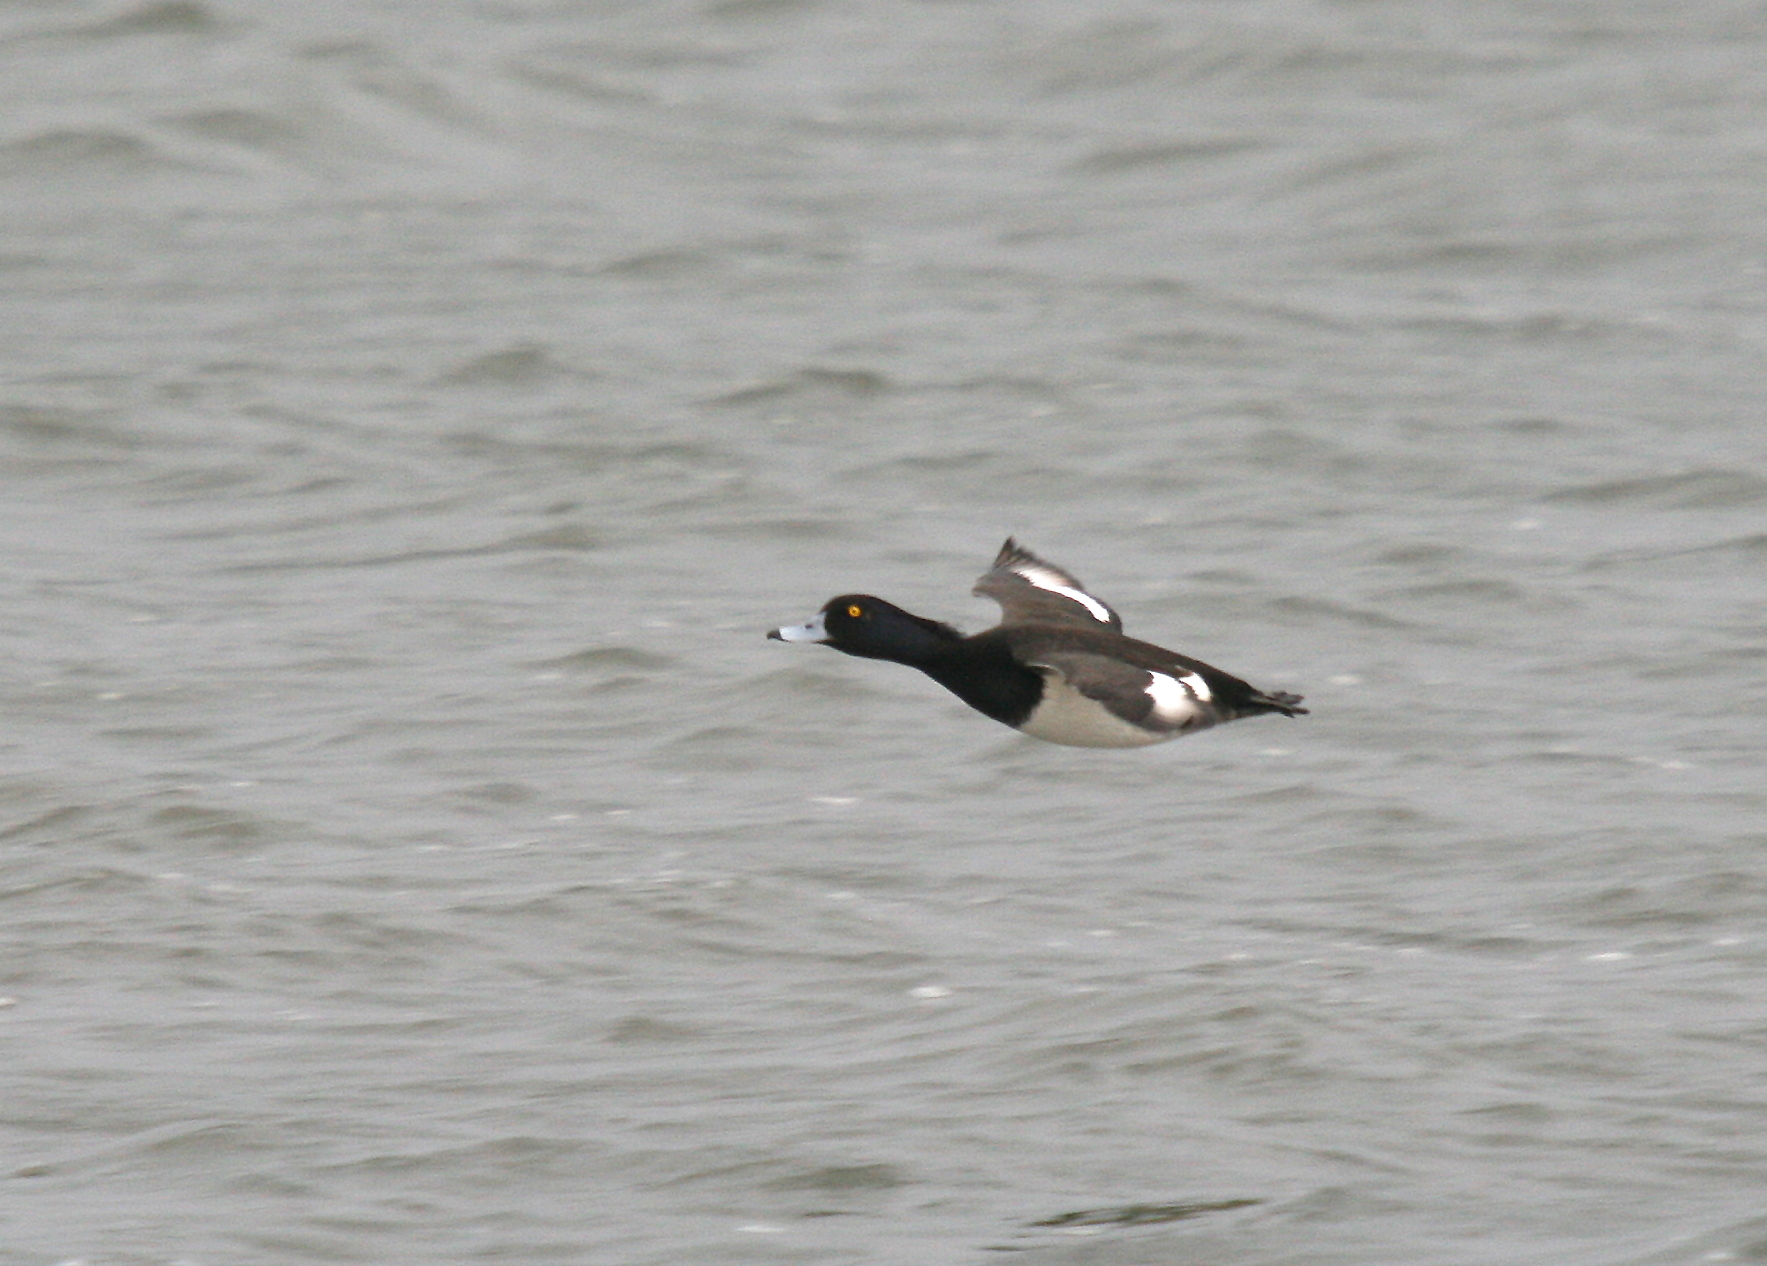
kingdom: Animalia
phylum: Chordata
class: Aves
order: Anseriformes
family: Anatidae
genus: Aythya
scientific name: Aythya fuligula
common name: Tufted duck
